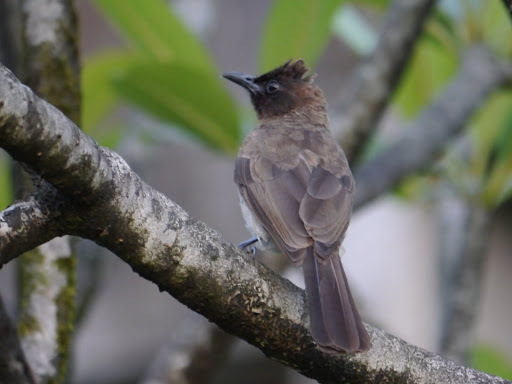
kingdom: Animalia
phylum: Chordata
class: Aves
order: Passeriformes
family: Pycnonotidae
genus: Pycnonotus
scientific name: Pycnonotus barbatus
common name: Common bulbul
